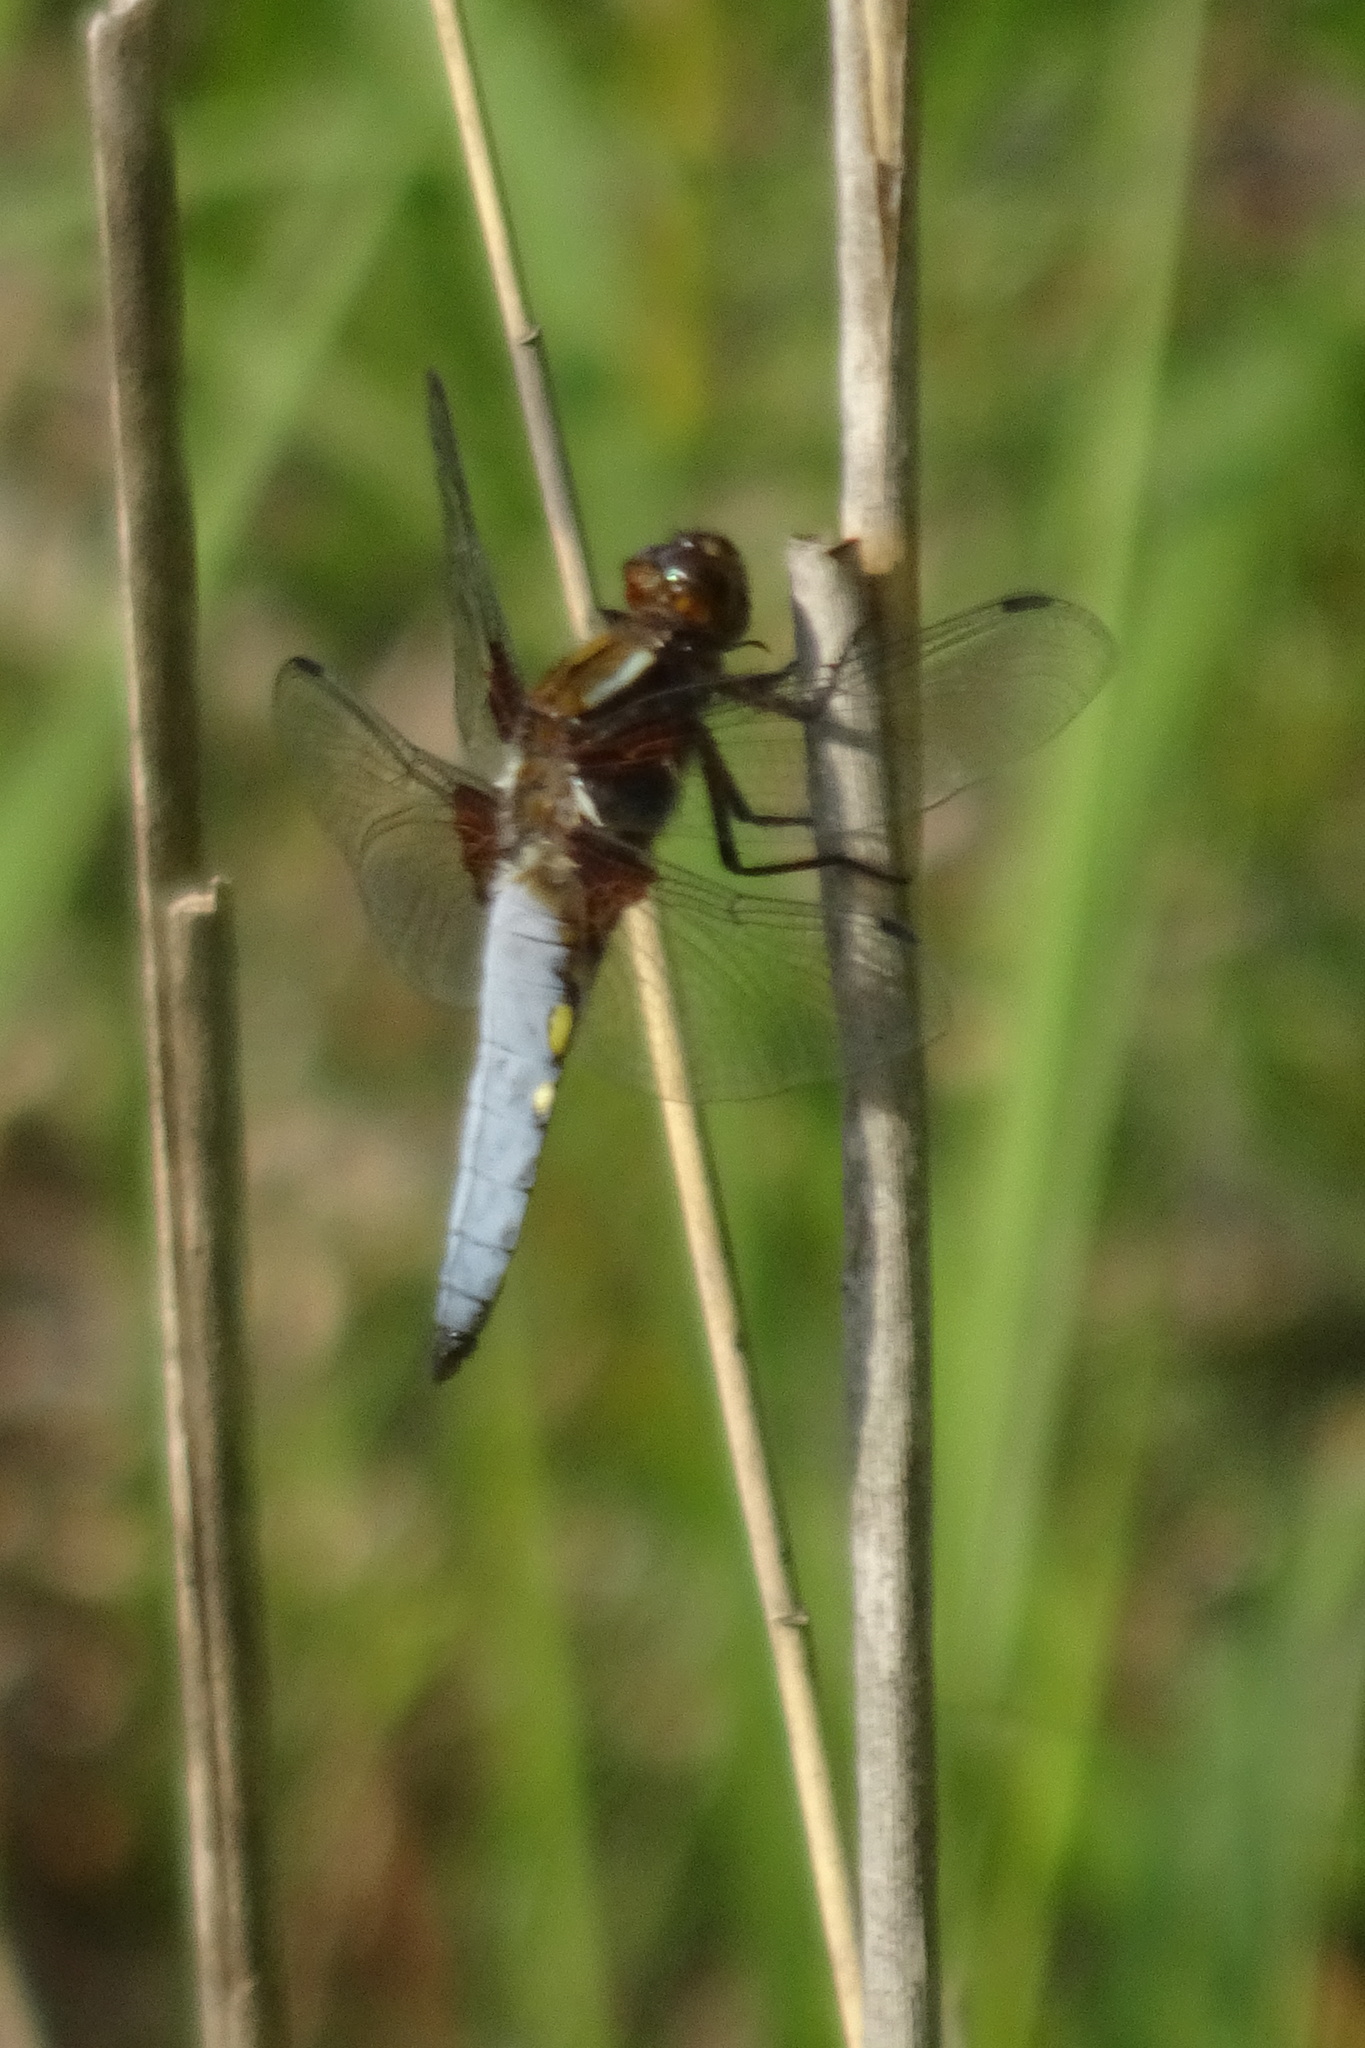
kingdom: Animalia
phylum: Arthropoda
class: Insecta
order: Odonata
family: Libellulidae
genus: Libellula
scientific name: Libellula depressa
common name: Broad-bodied chaser
